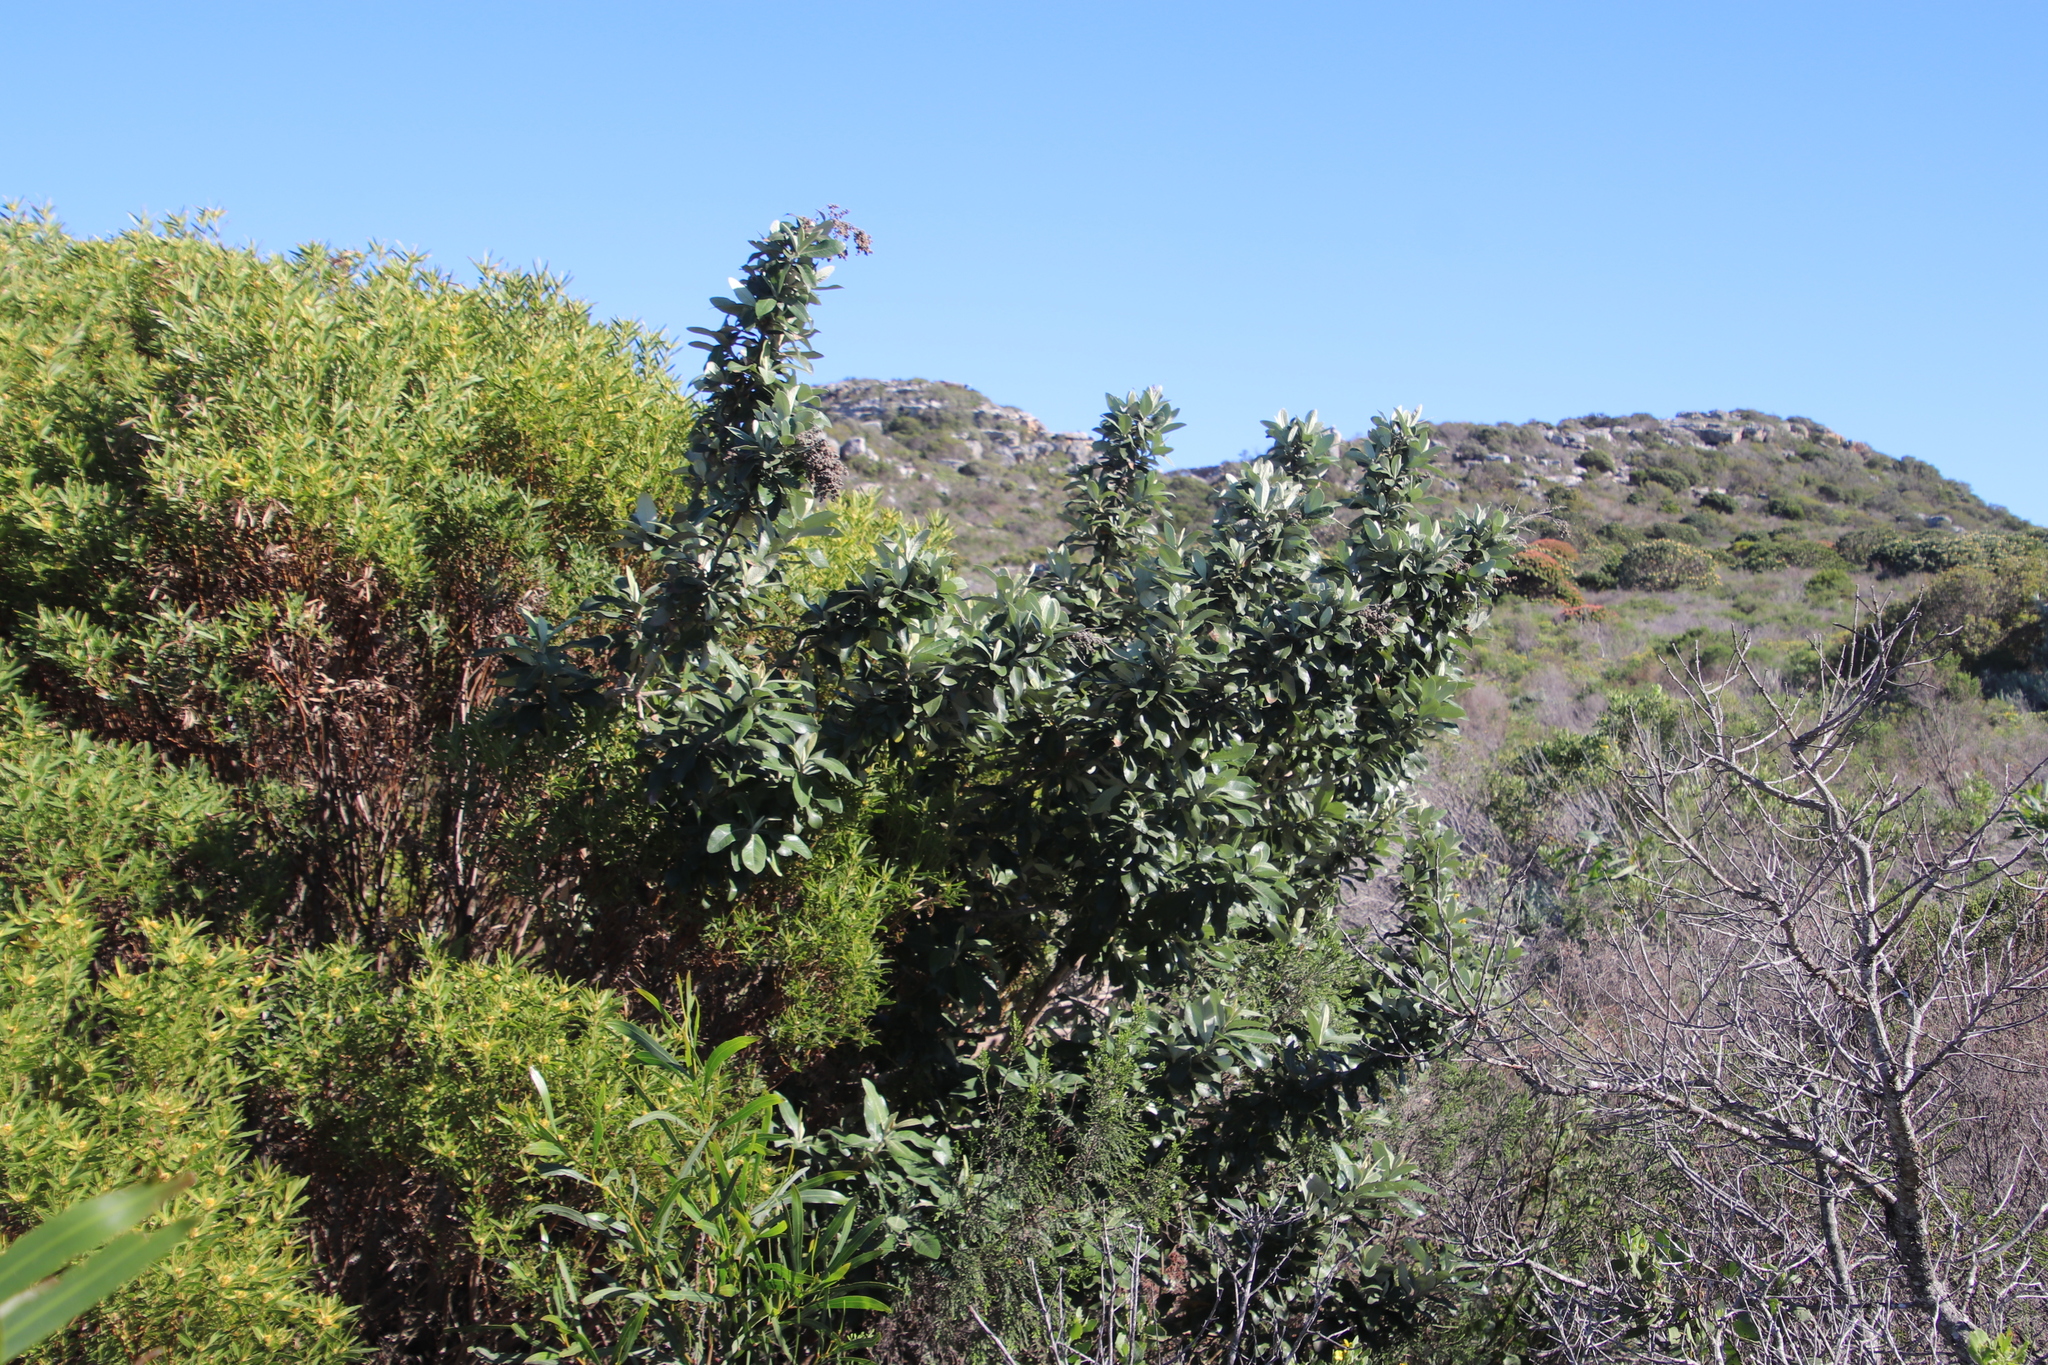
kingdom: Plantae
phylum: Tracheophyta
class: Magnoliopsida
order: Asterales
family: Asteraceae
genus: Tarchonanthus
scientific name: Tarchonanthus littoralis
